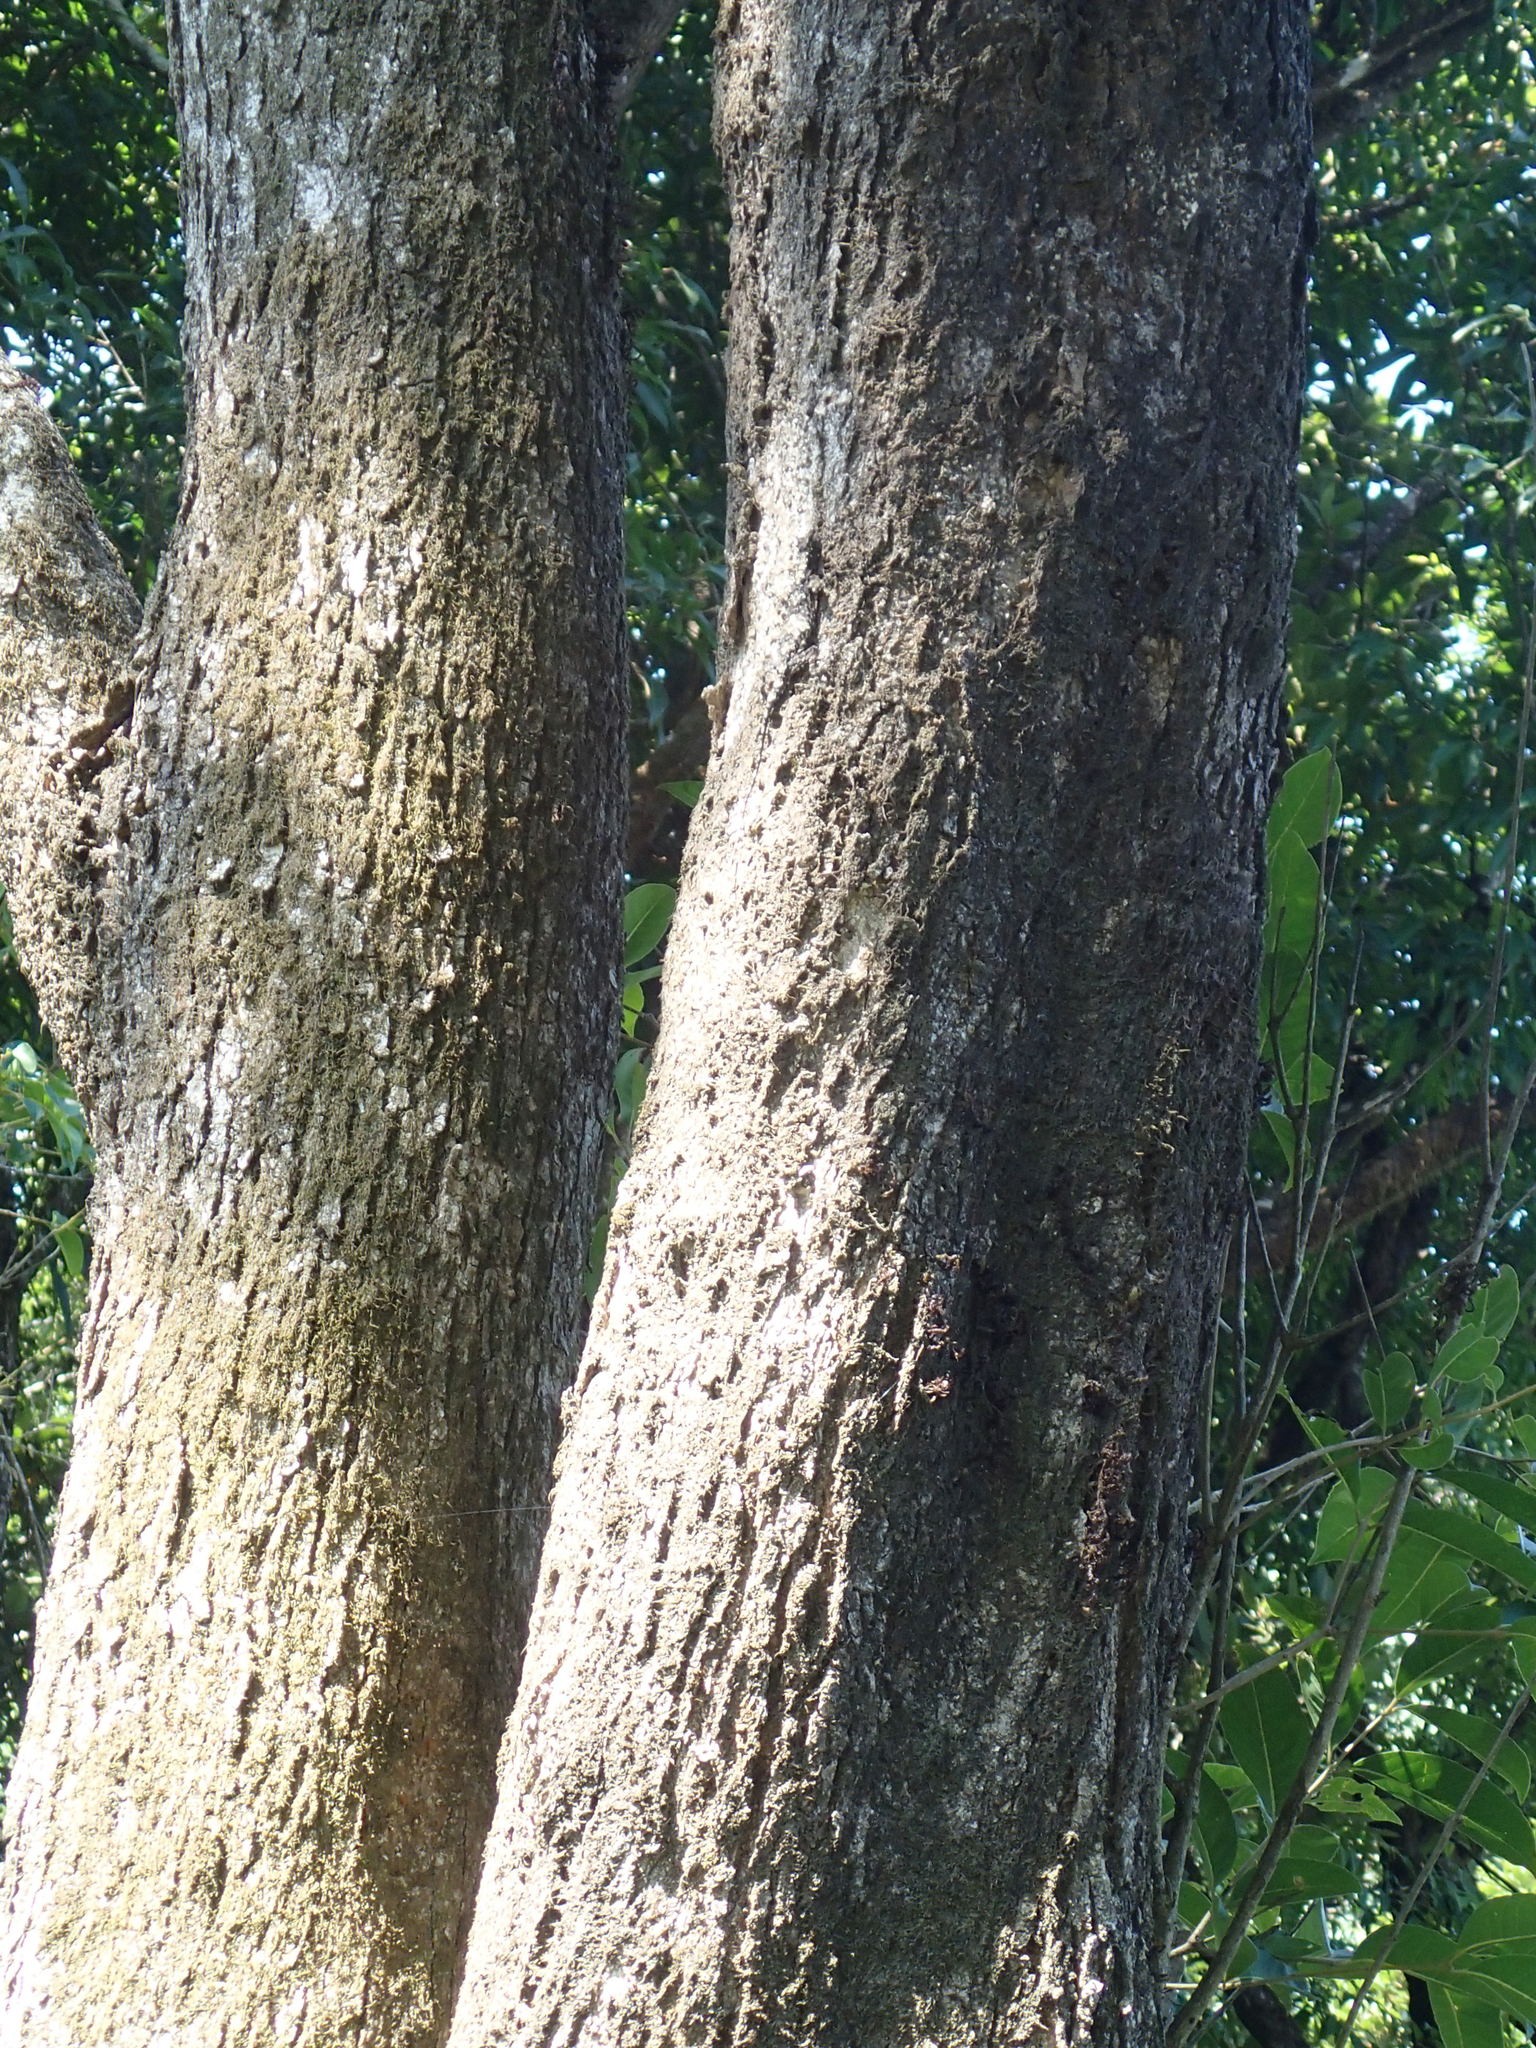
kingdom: Animalia
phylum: Chordata
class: Squamata
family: Agamidae
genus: Draco
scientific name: Draco dussumieri
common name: Southern flying lizard
